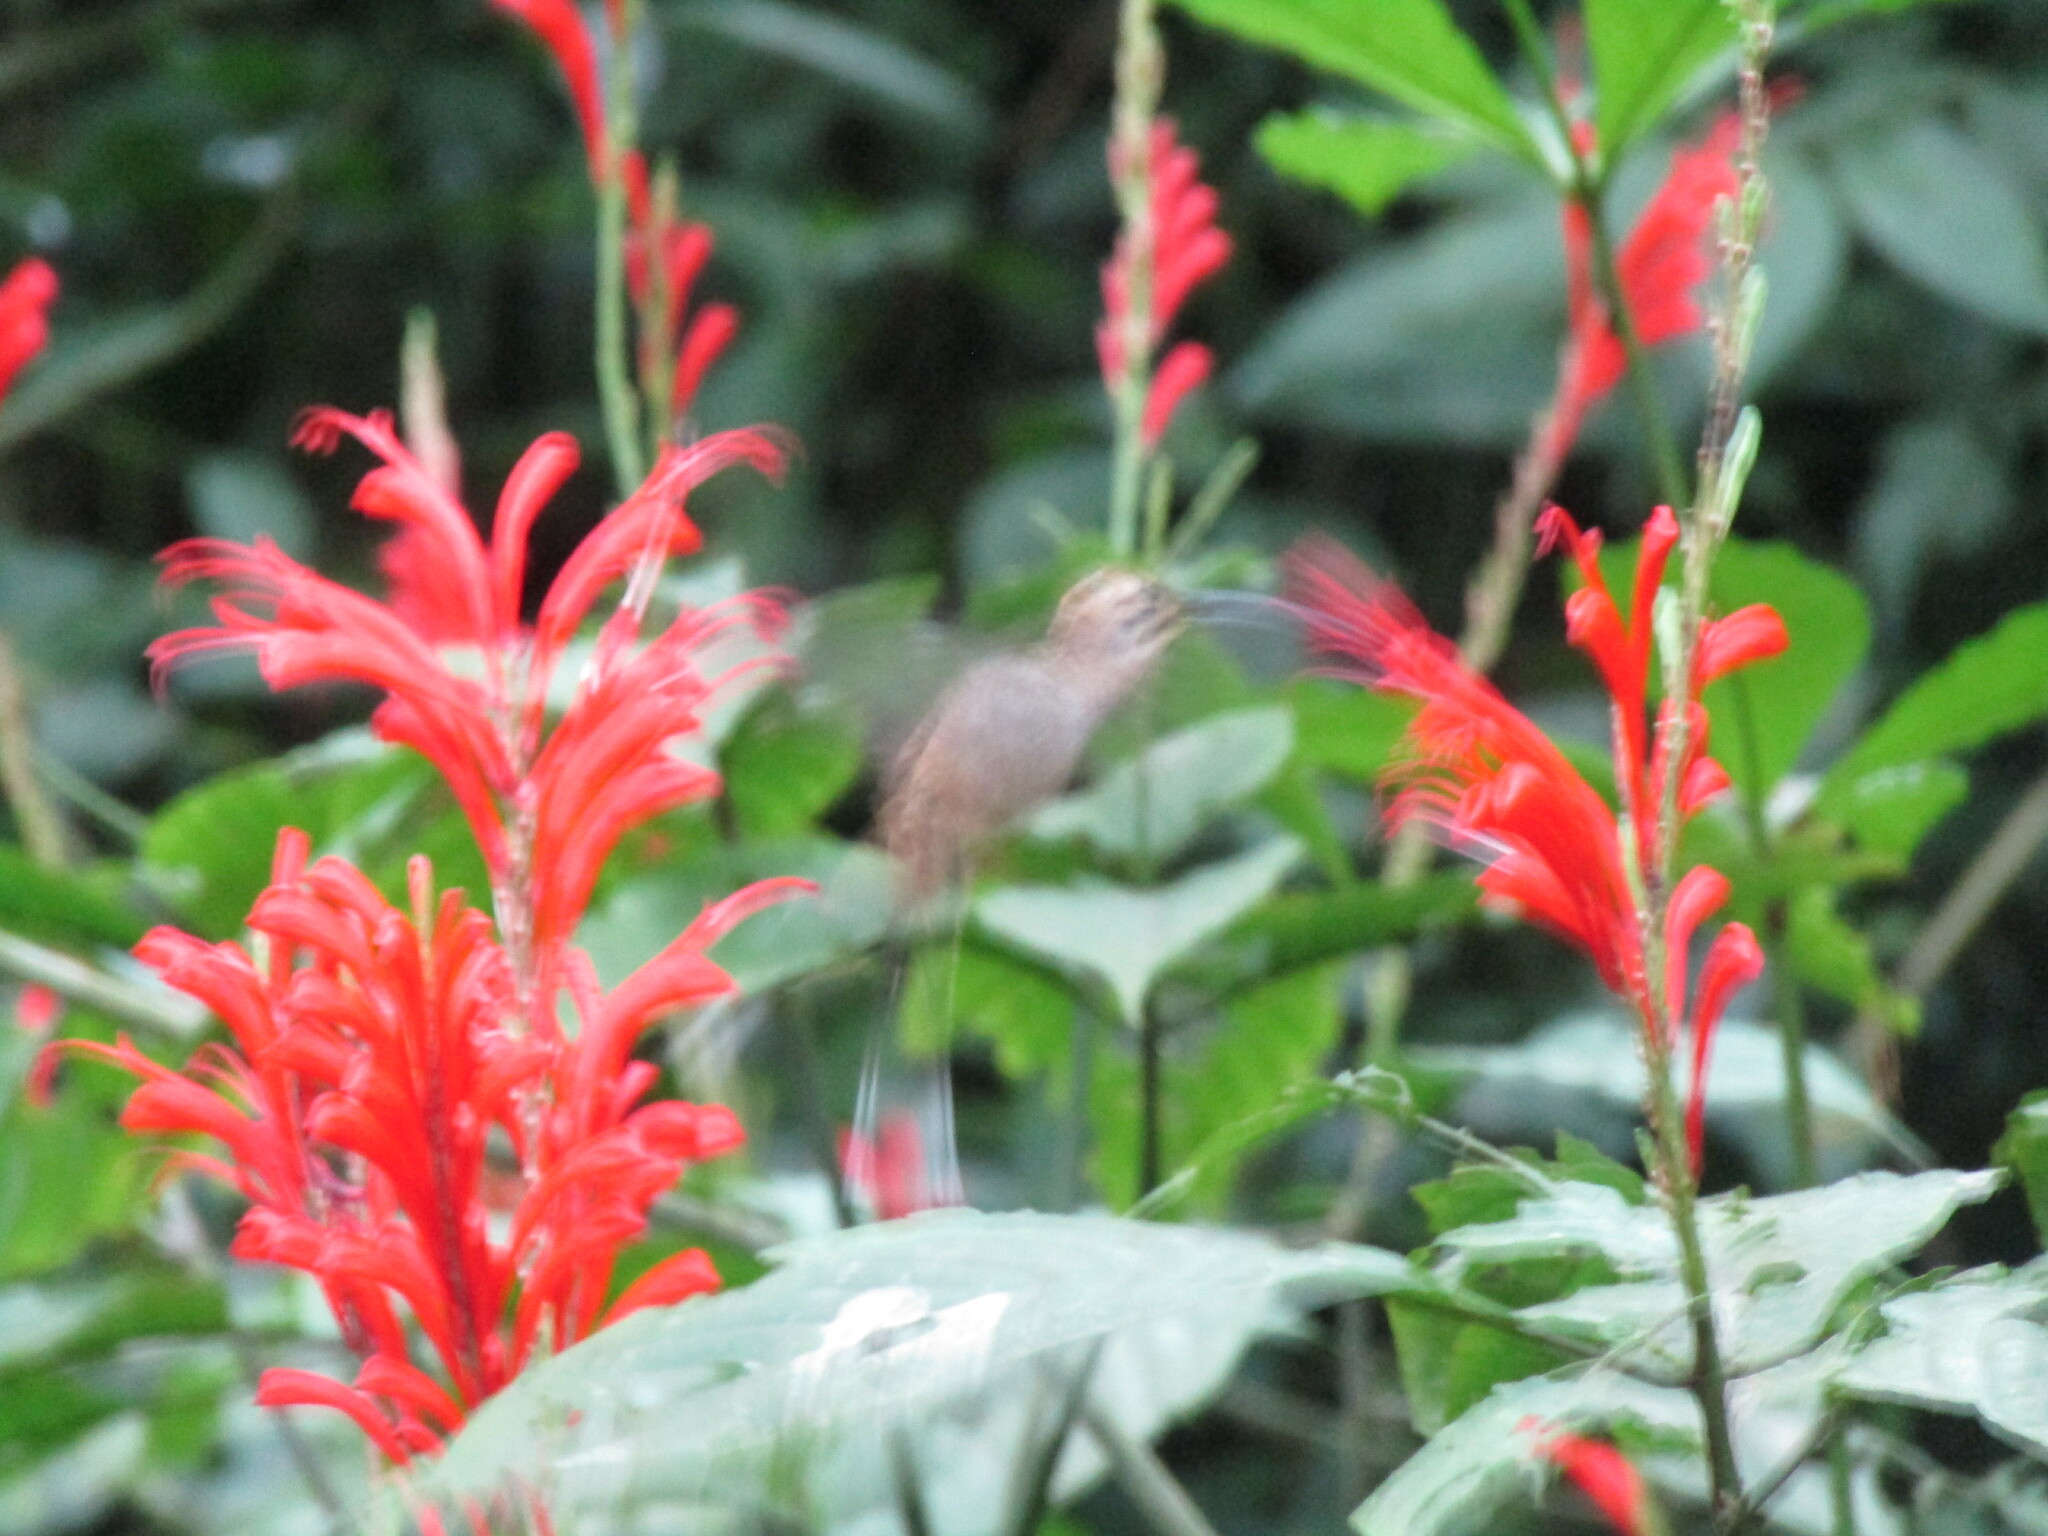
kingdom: Animalia
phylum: Chordata
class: Aves
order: Apodiformes
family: Trochilidae
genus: Phaethornis
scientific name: Phaethornis longirostris
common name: Long-billed hermit
